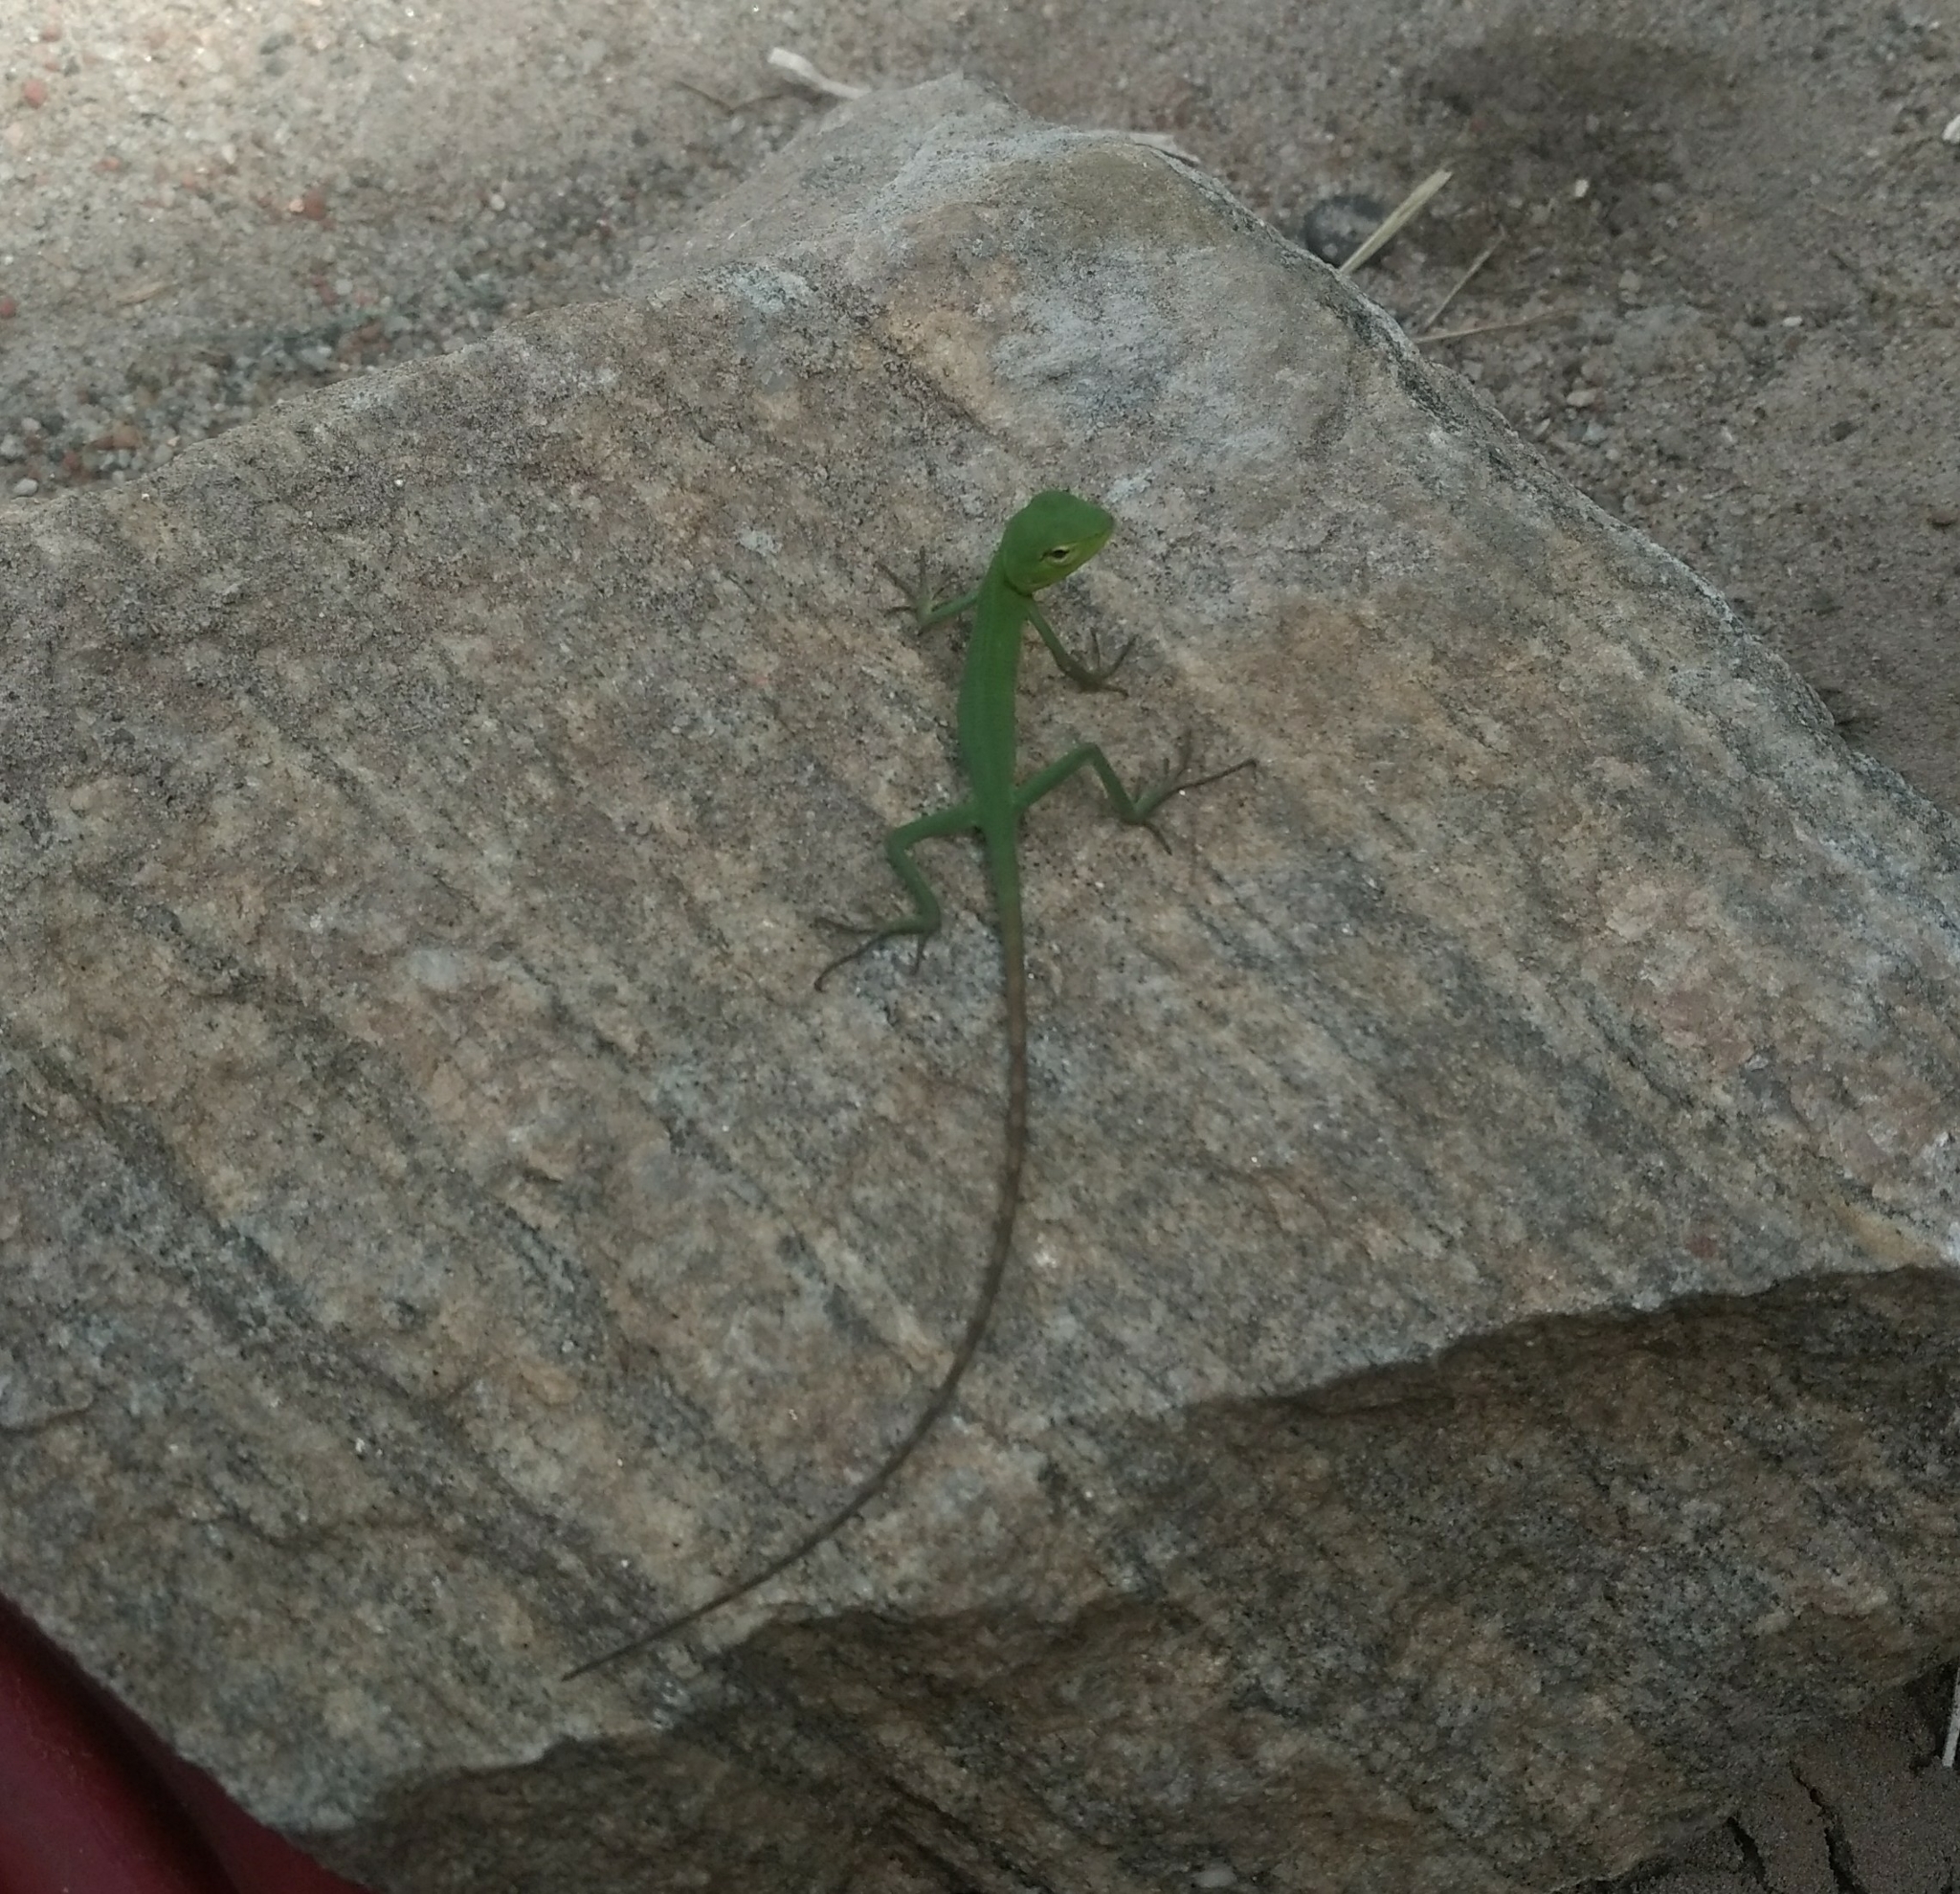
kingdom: Animalia
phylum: Chordata
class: Squamata
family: Agamidae
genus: Calotes
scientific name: Calotes calotes
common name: Common green forest lizard
